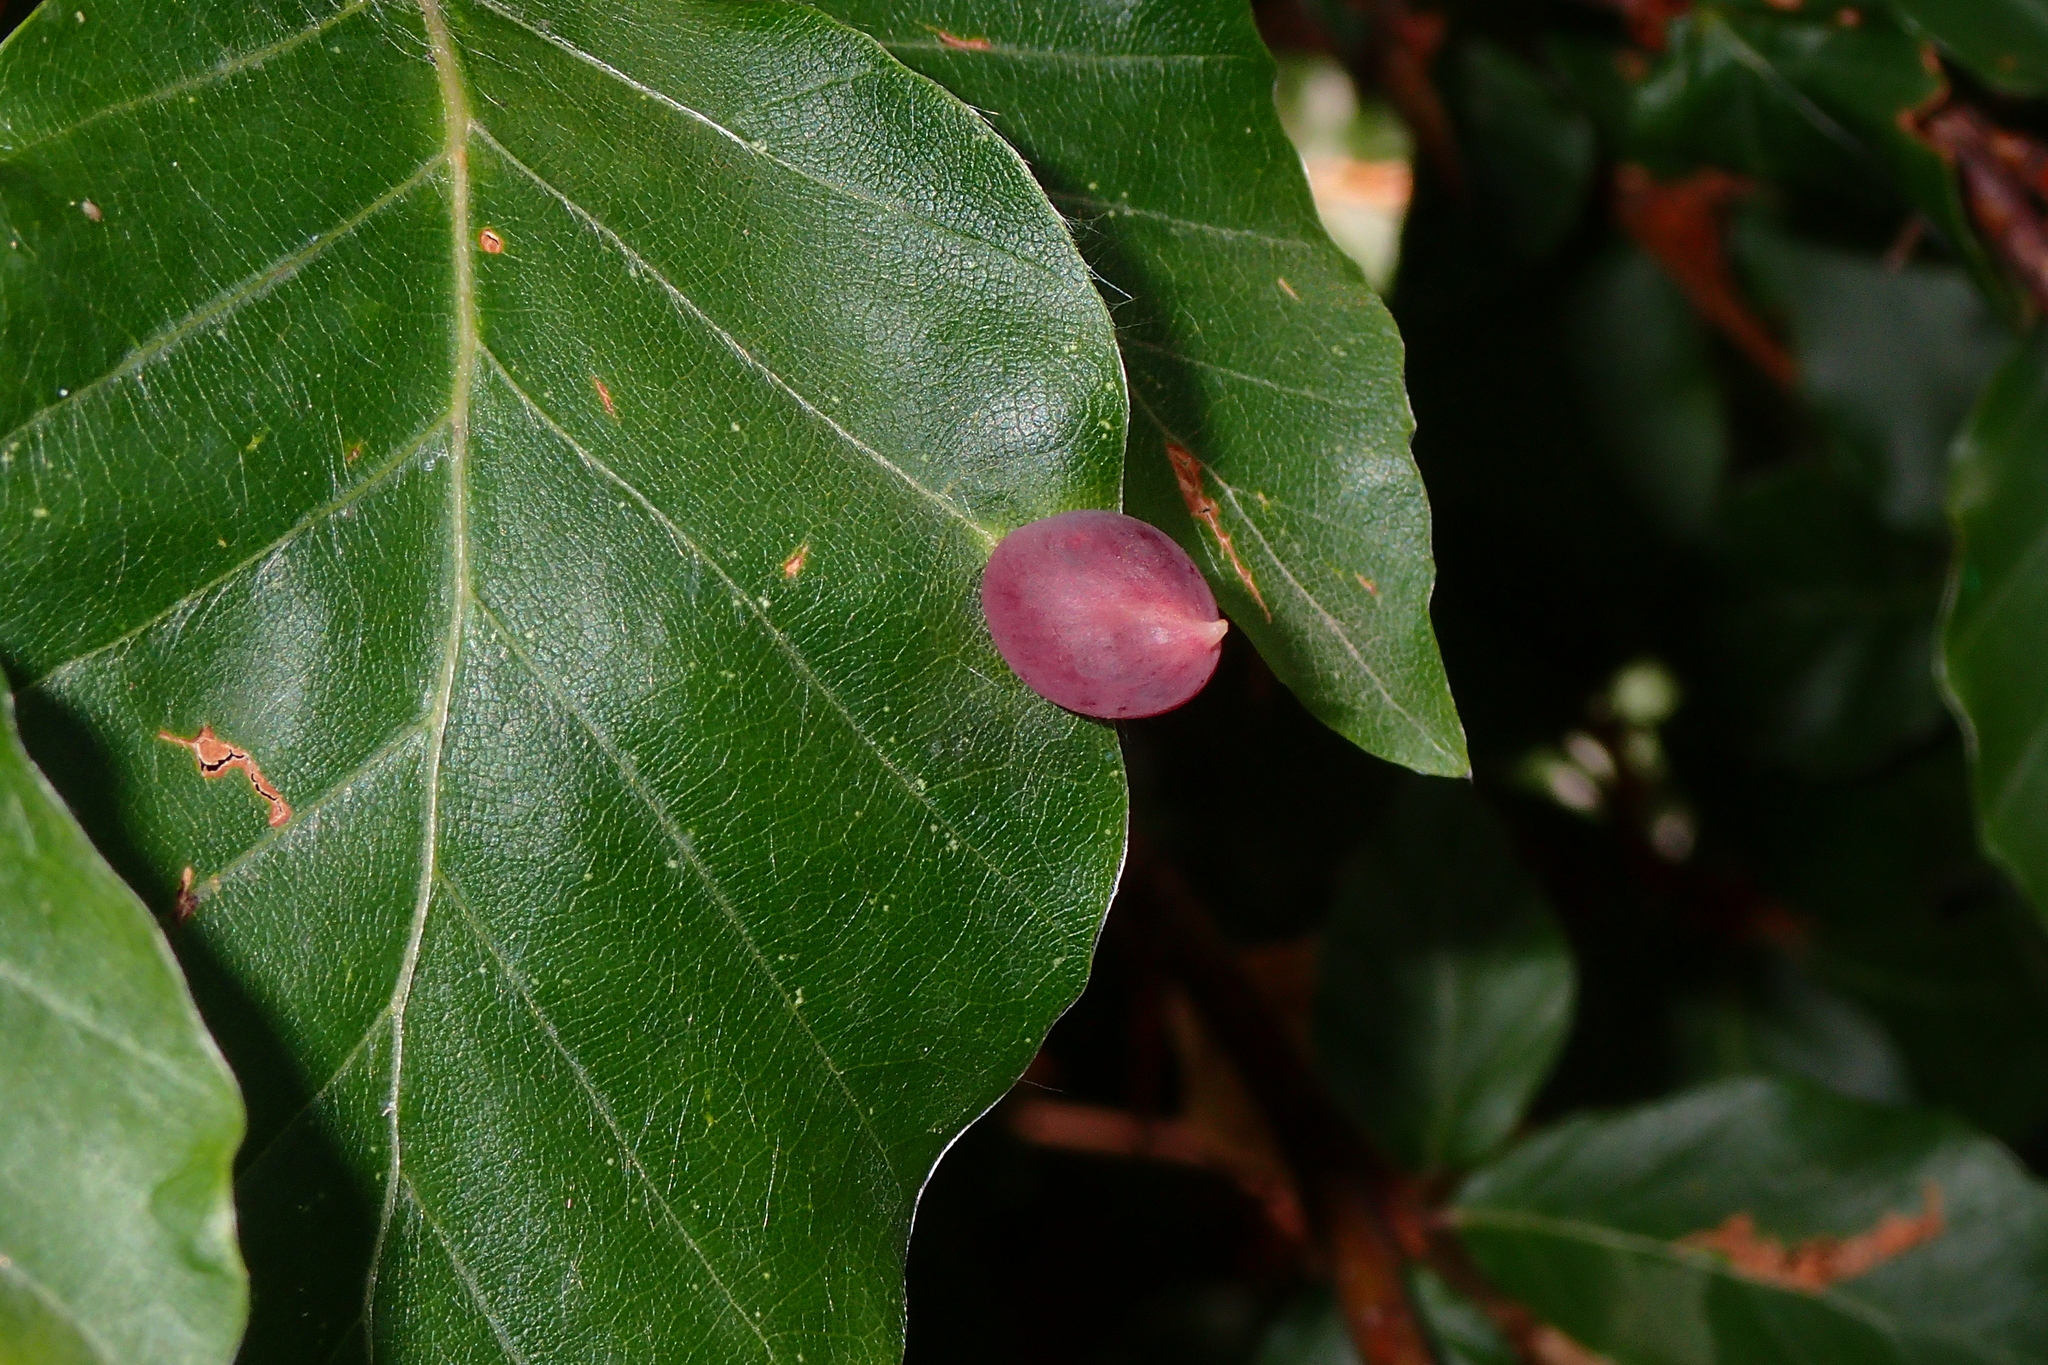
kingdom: Animalia
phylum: Arthropoda
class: Insecta
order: Diptera
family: Cecidomyiidae
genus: Mikiola
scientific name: Mikiola fagi
